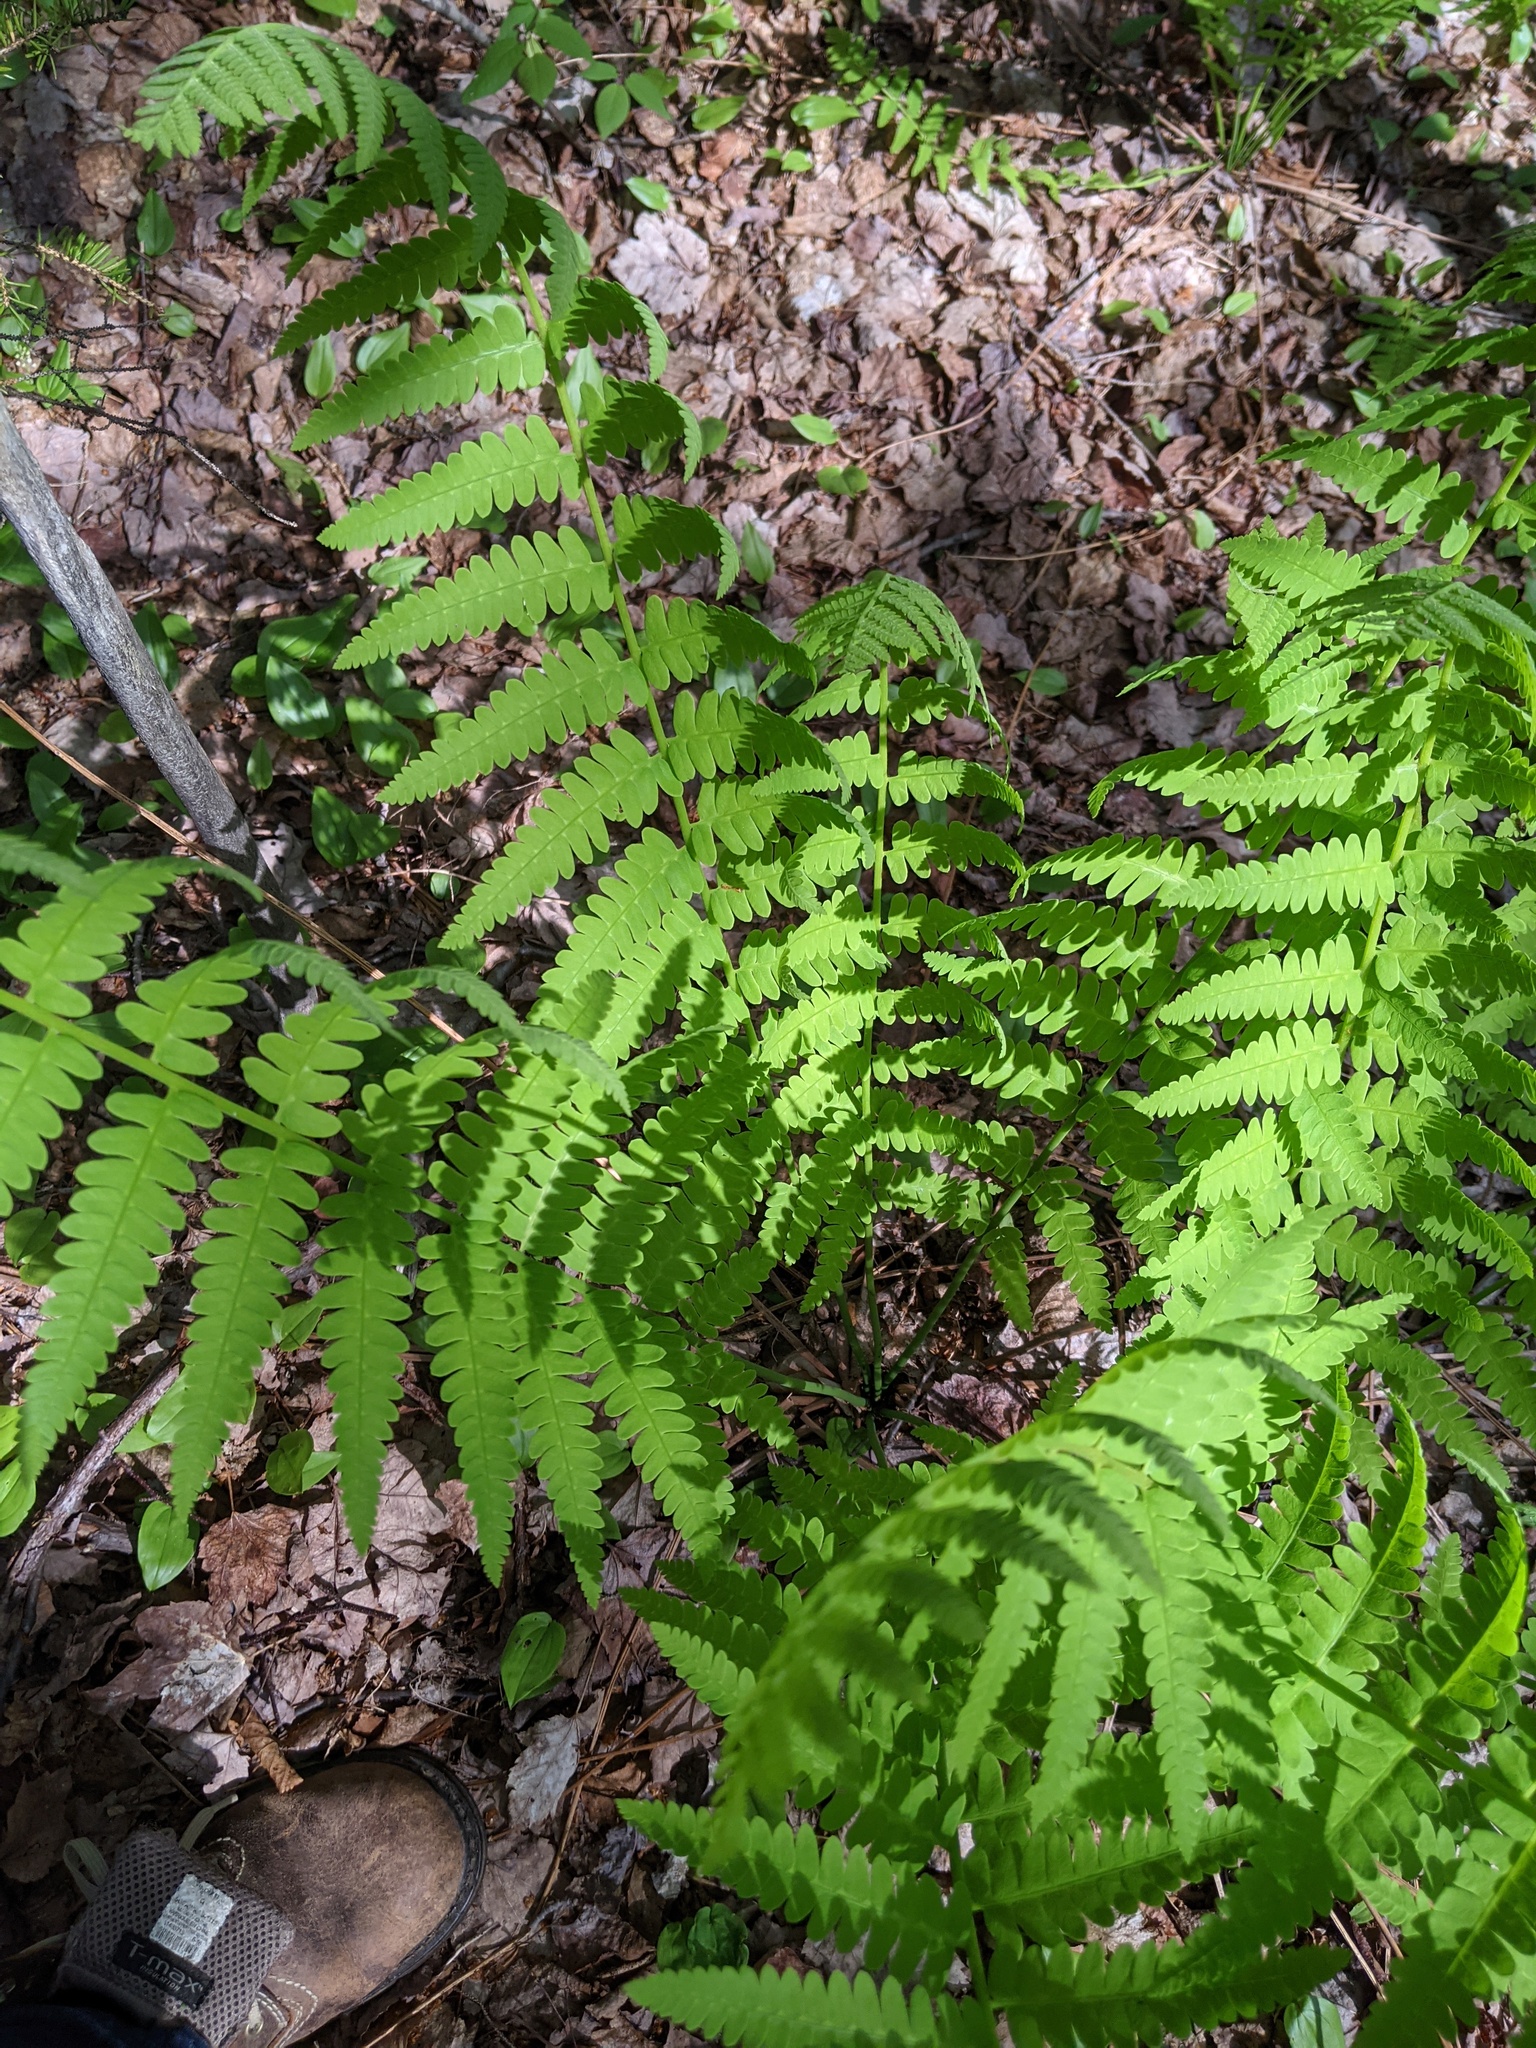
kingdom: Plantae
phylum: Tracheophyta
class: Polypodiopsida
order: Osmundales
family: Osmundaceae
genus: Claytosmunda
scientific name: Claytosmunda claytoniana
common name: Clayton's fern
